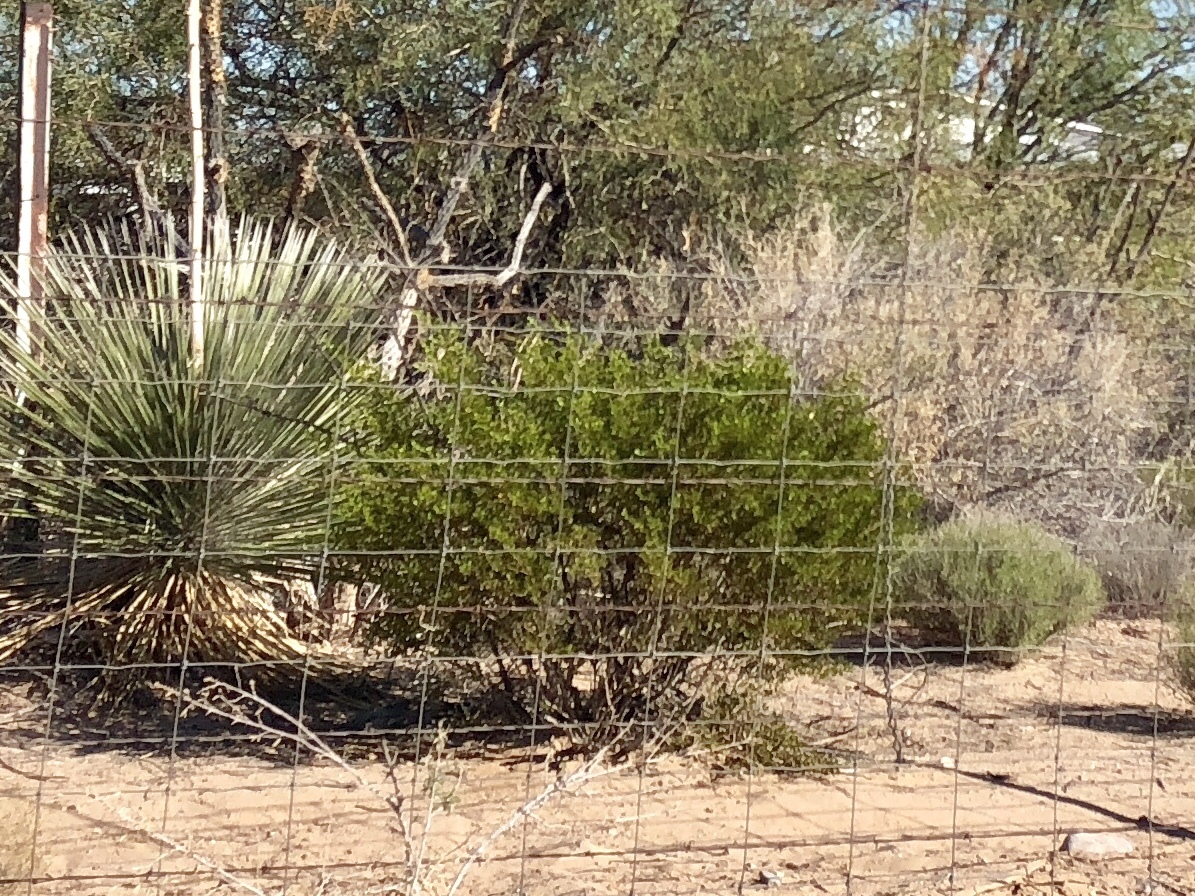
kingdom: Plantae
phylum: Tracheophyta
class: Magnoliopsida
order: Zygophyllales
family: Zygophyllaceae
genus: Larrea
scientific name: Larrea tridentata
